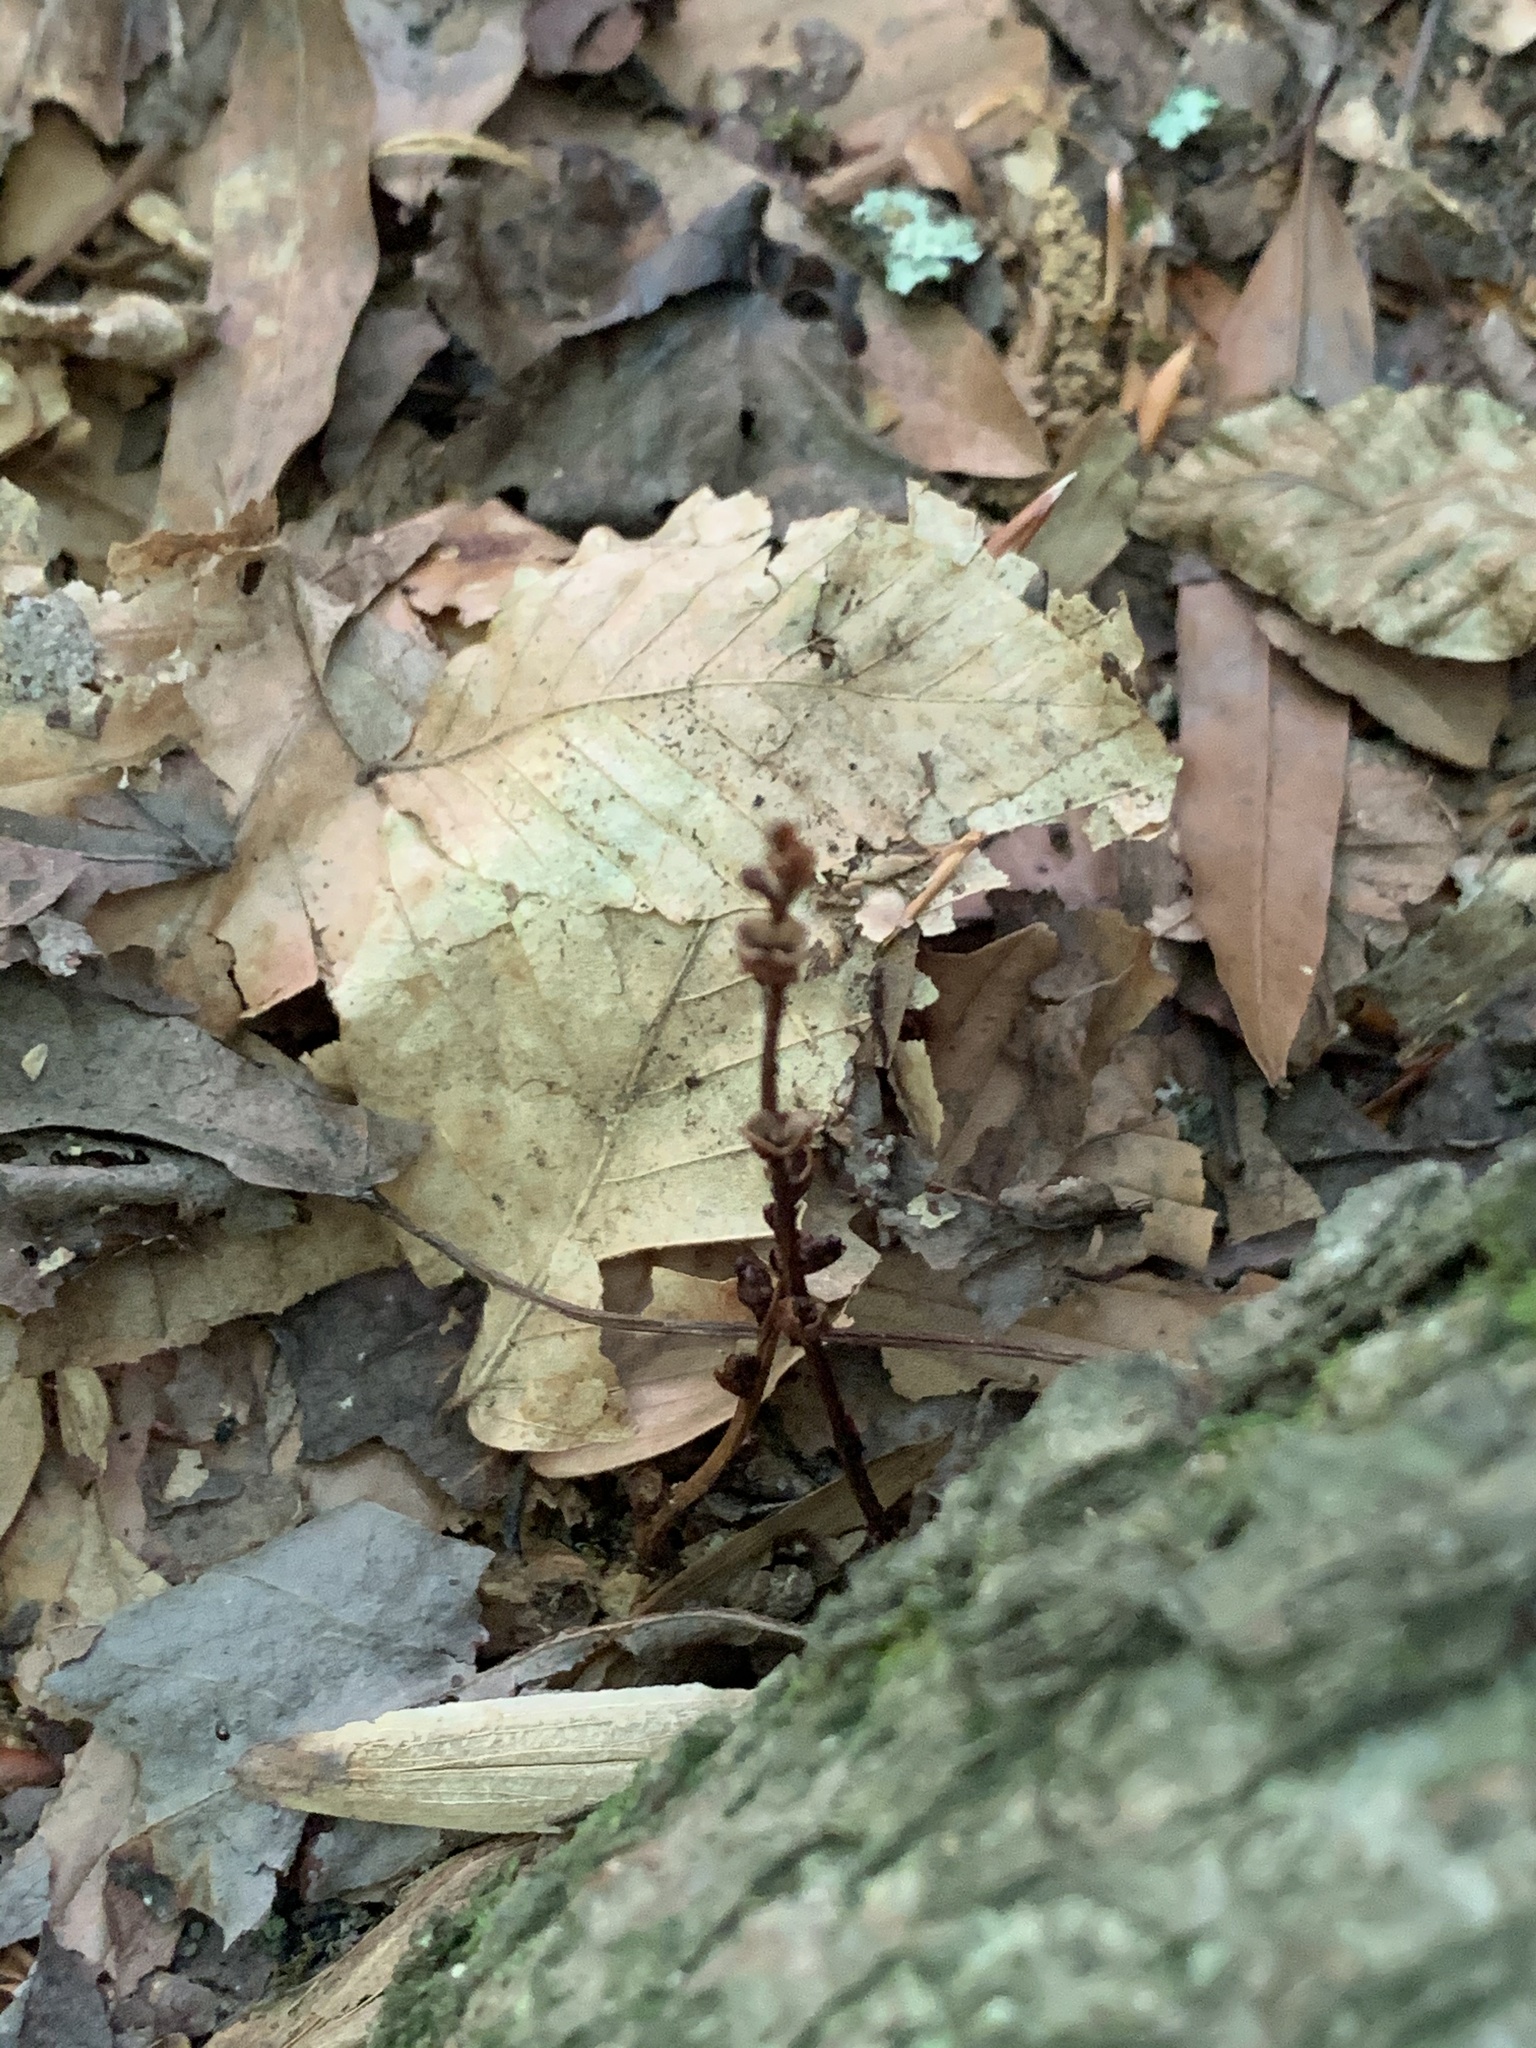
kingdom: Plantae
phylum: Tracheophyta
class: Magnoliopsida
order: Lamiales
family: Orobanchaceae
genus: Epifagus
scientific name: Epifagus virginiana
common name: Beechdrops
